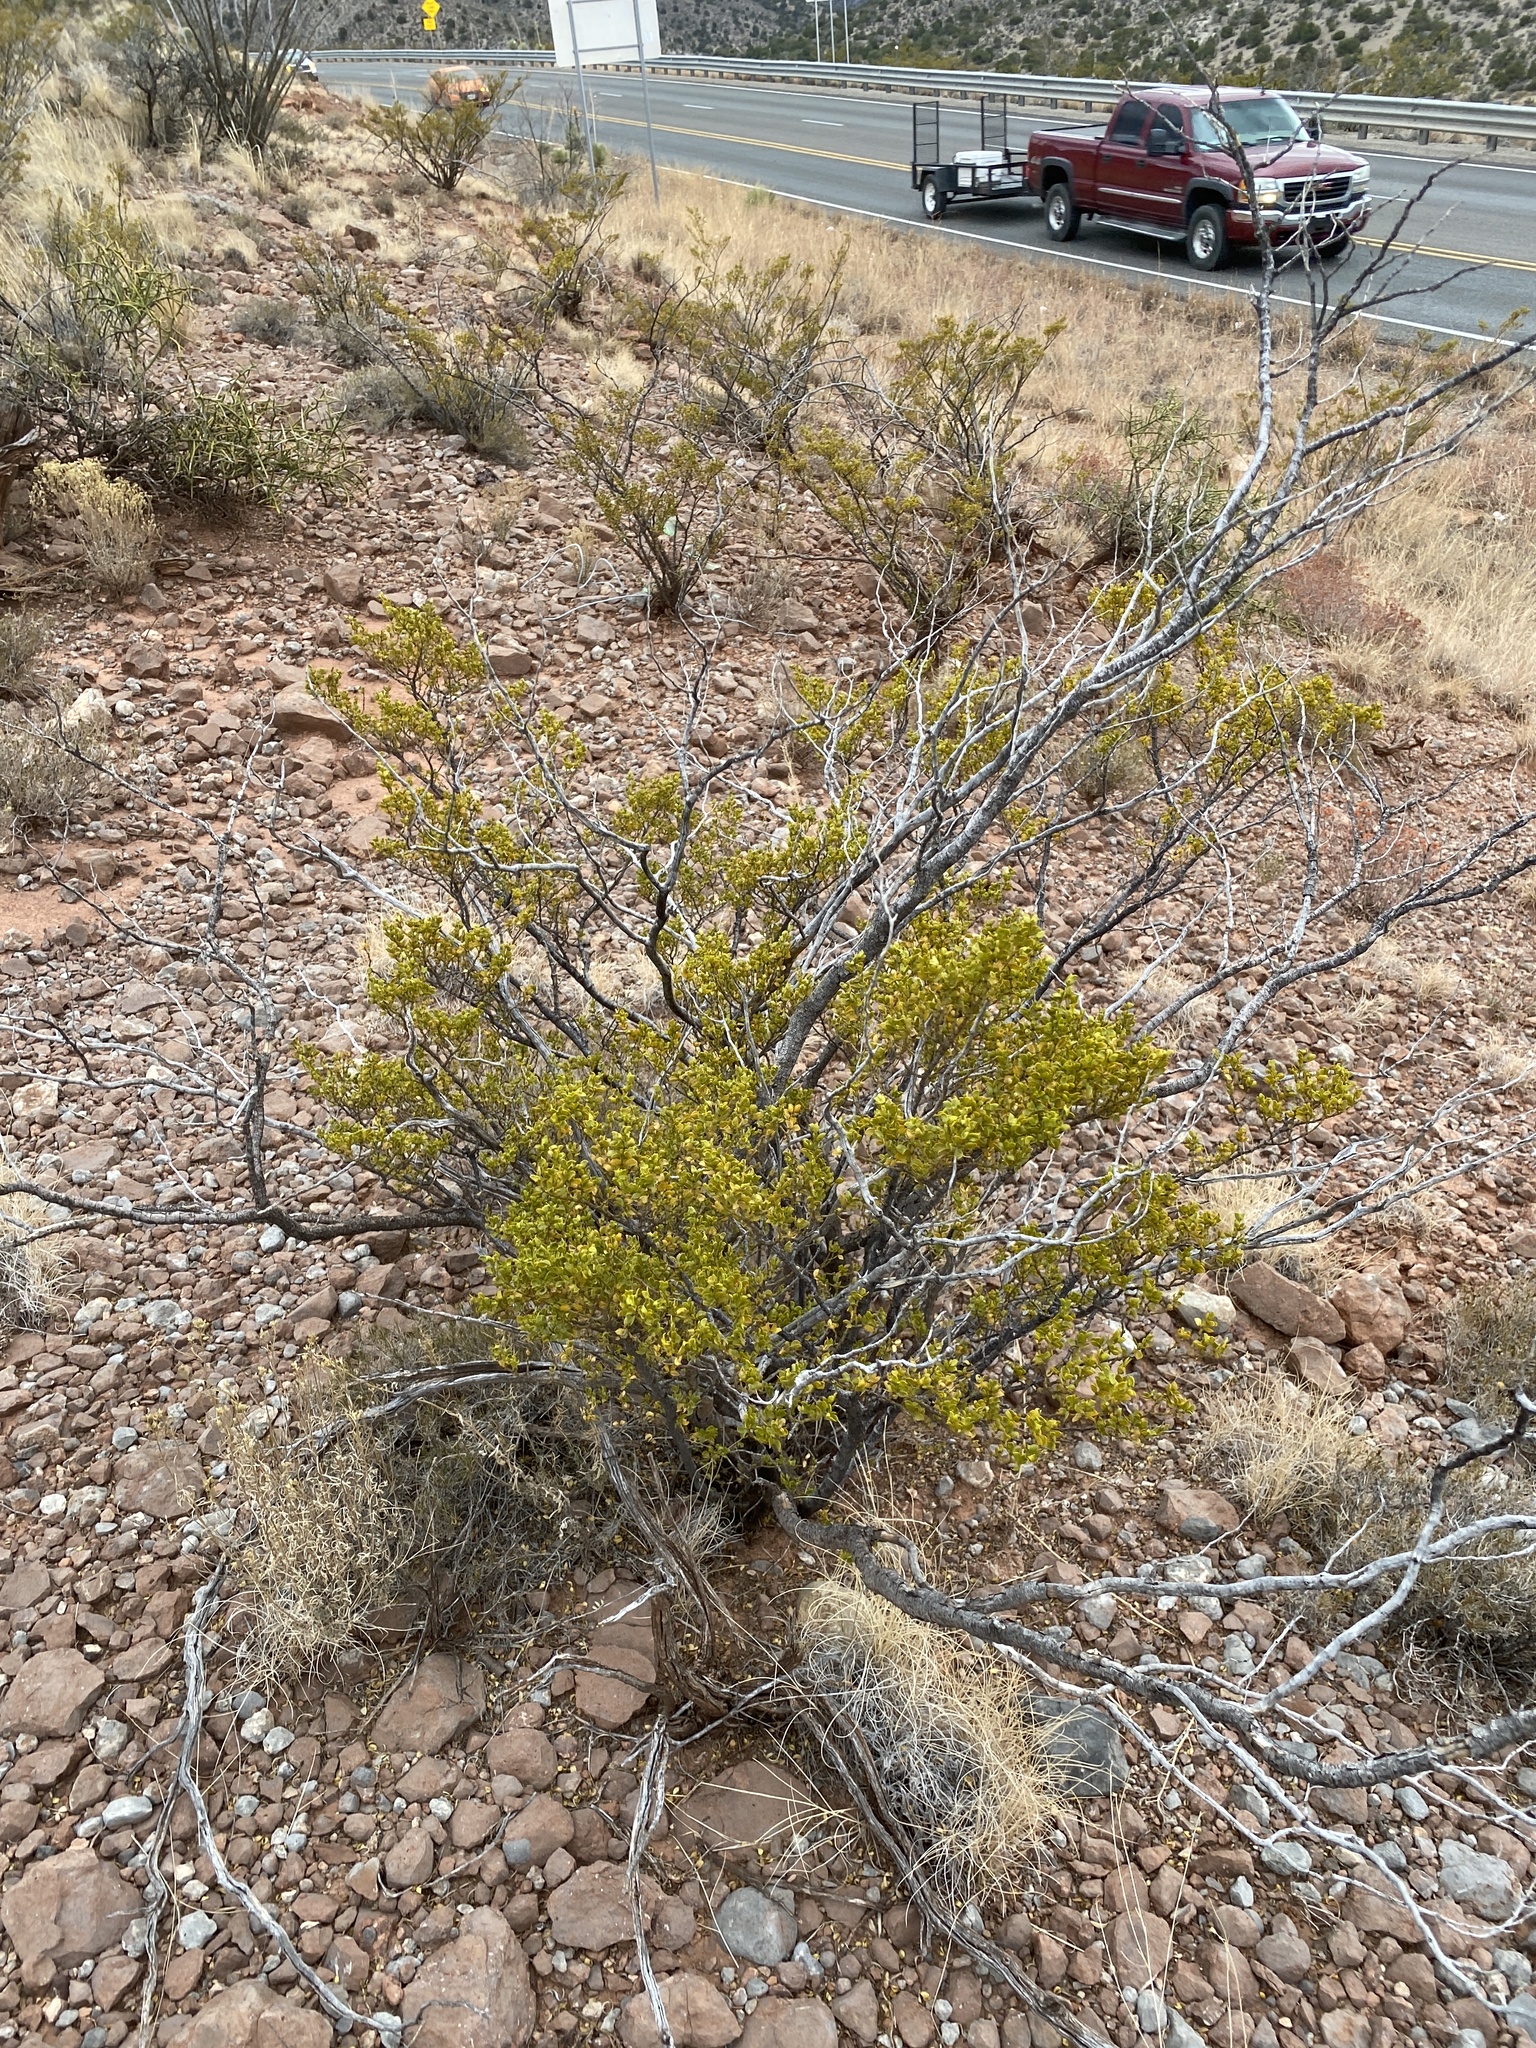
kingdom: Plantae
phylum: Tracheophyta
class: Magnoliopsida
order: Zygophyllales
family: Zygophyllaceae
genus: Larrea
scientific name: Larrea tridentata
